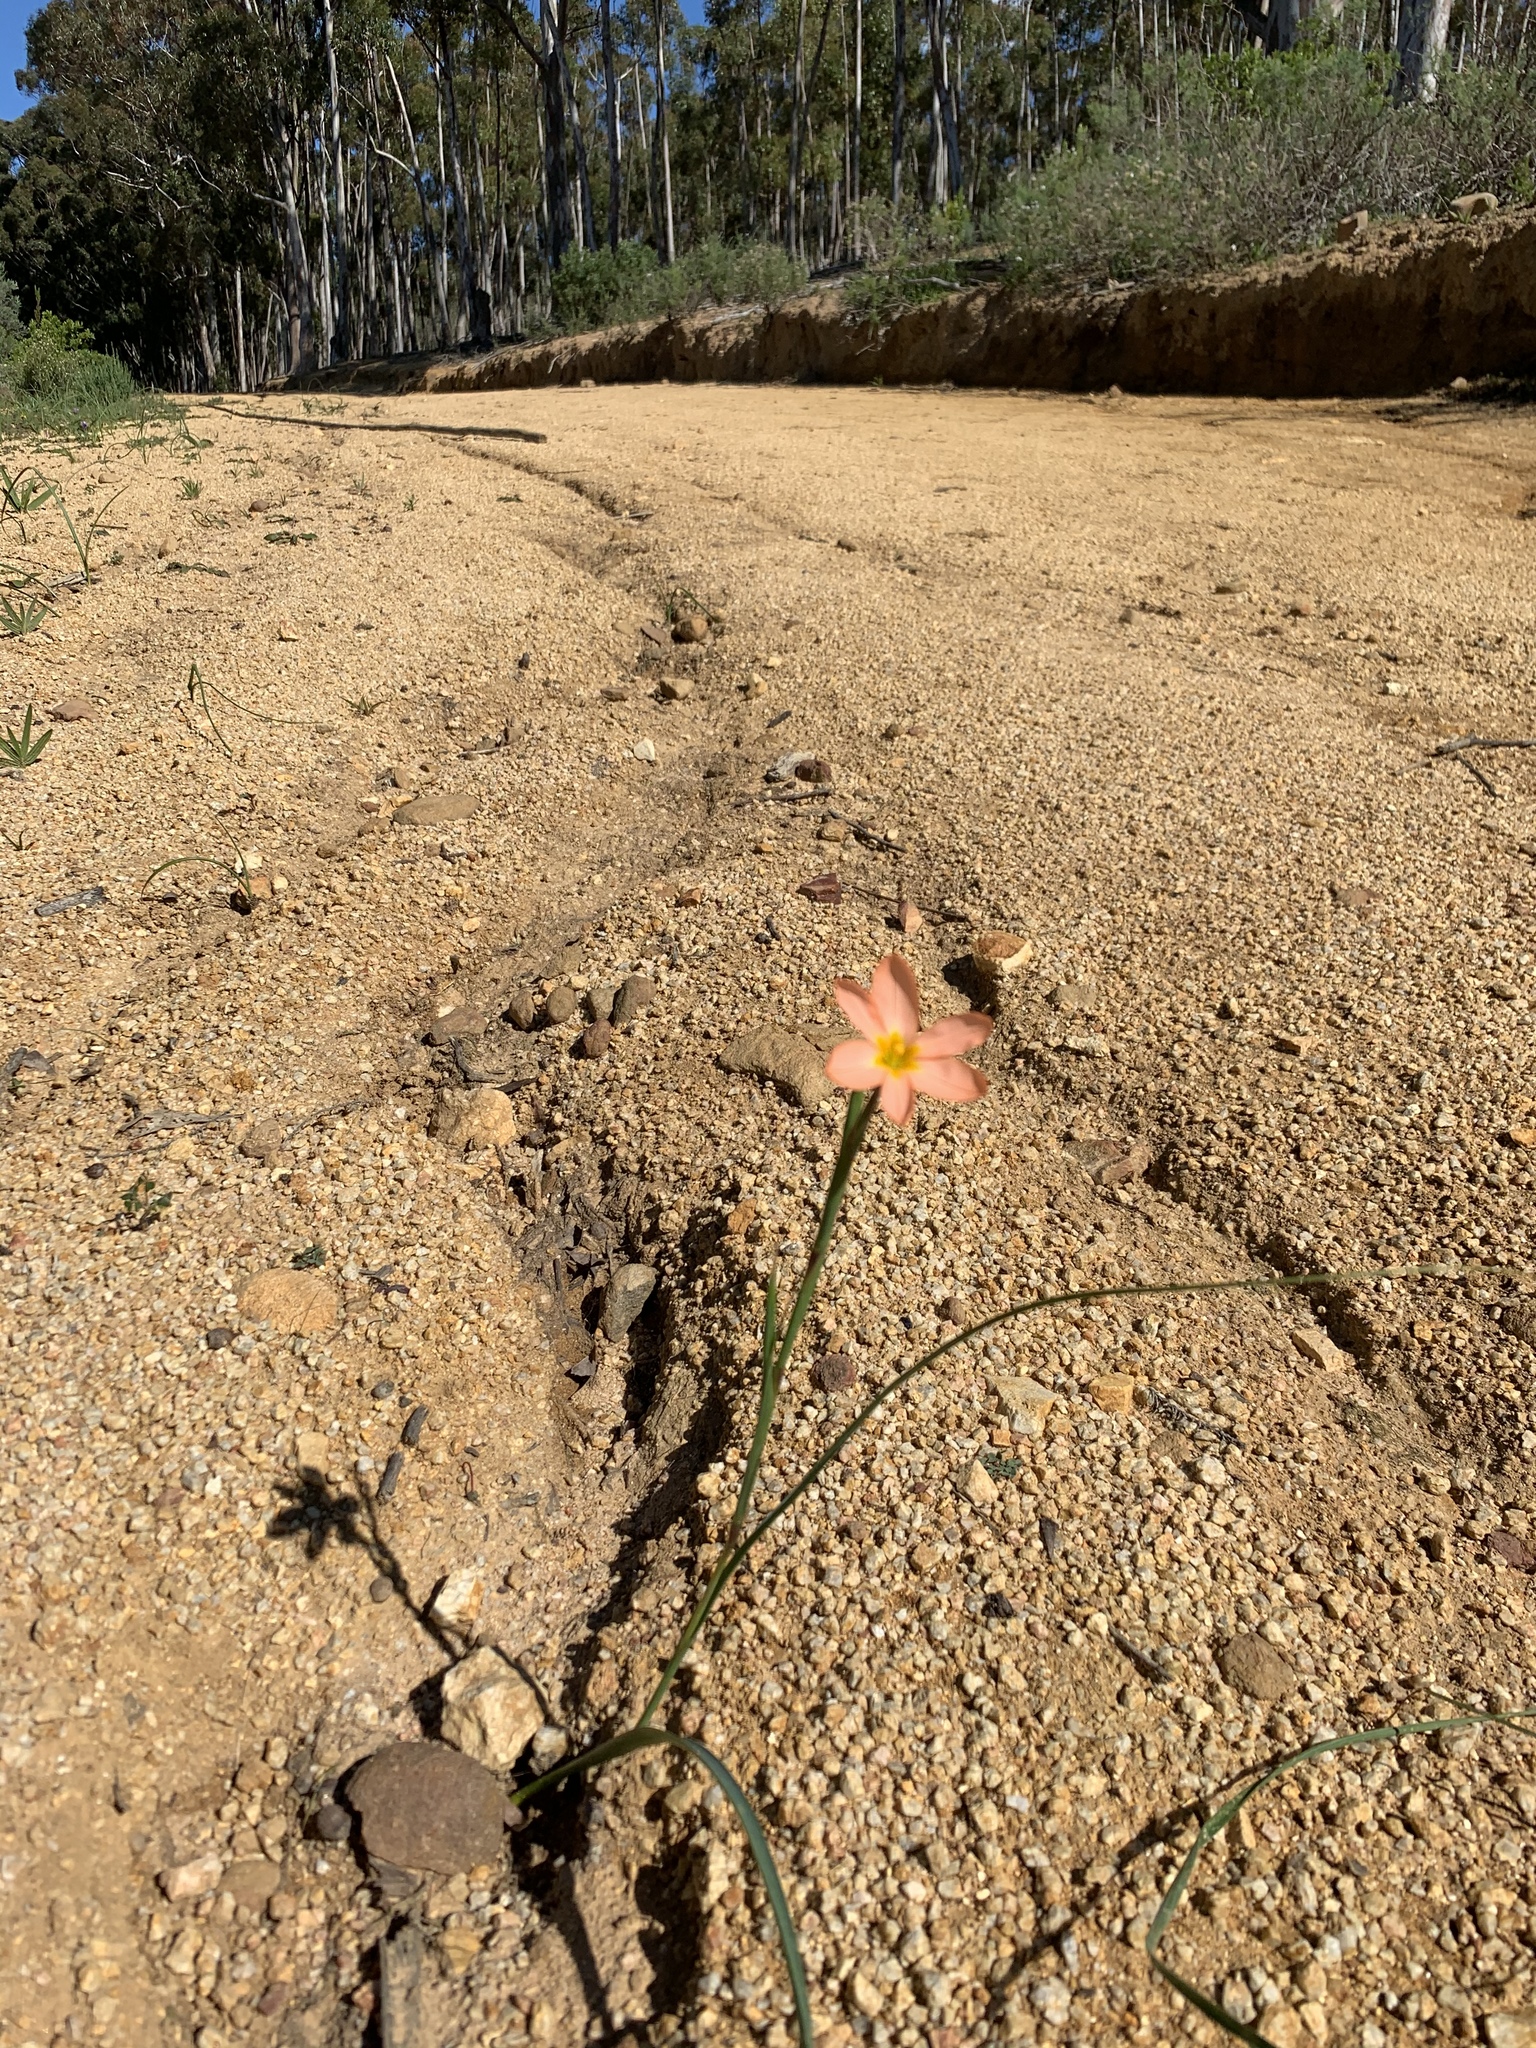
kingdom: Plantae
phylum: Tracheophyta
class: Liliopsida
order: Asparagales
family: Iridaceae
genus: Moraea
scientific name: Moraea miniata
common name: Two-leaf cape-tulip
